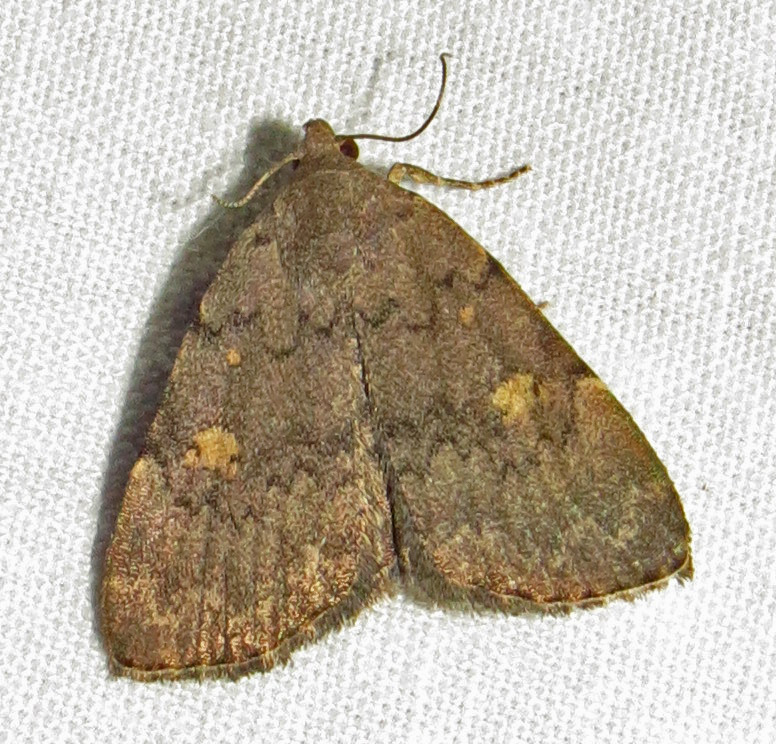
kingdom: Animalia
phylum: Arthropoda
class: Insecta
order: Lepidoptera
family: Erebidae
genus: Idia
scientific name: Idia aemula
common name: Common idia moth
